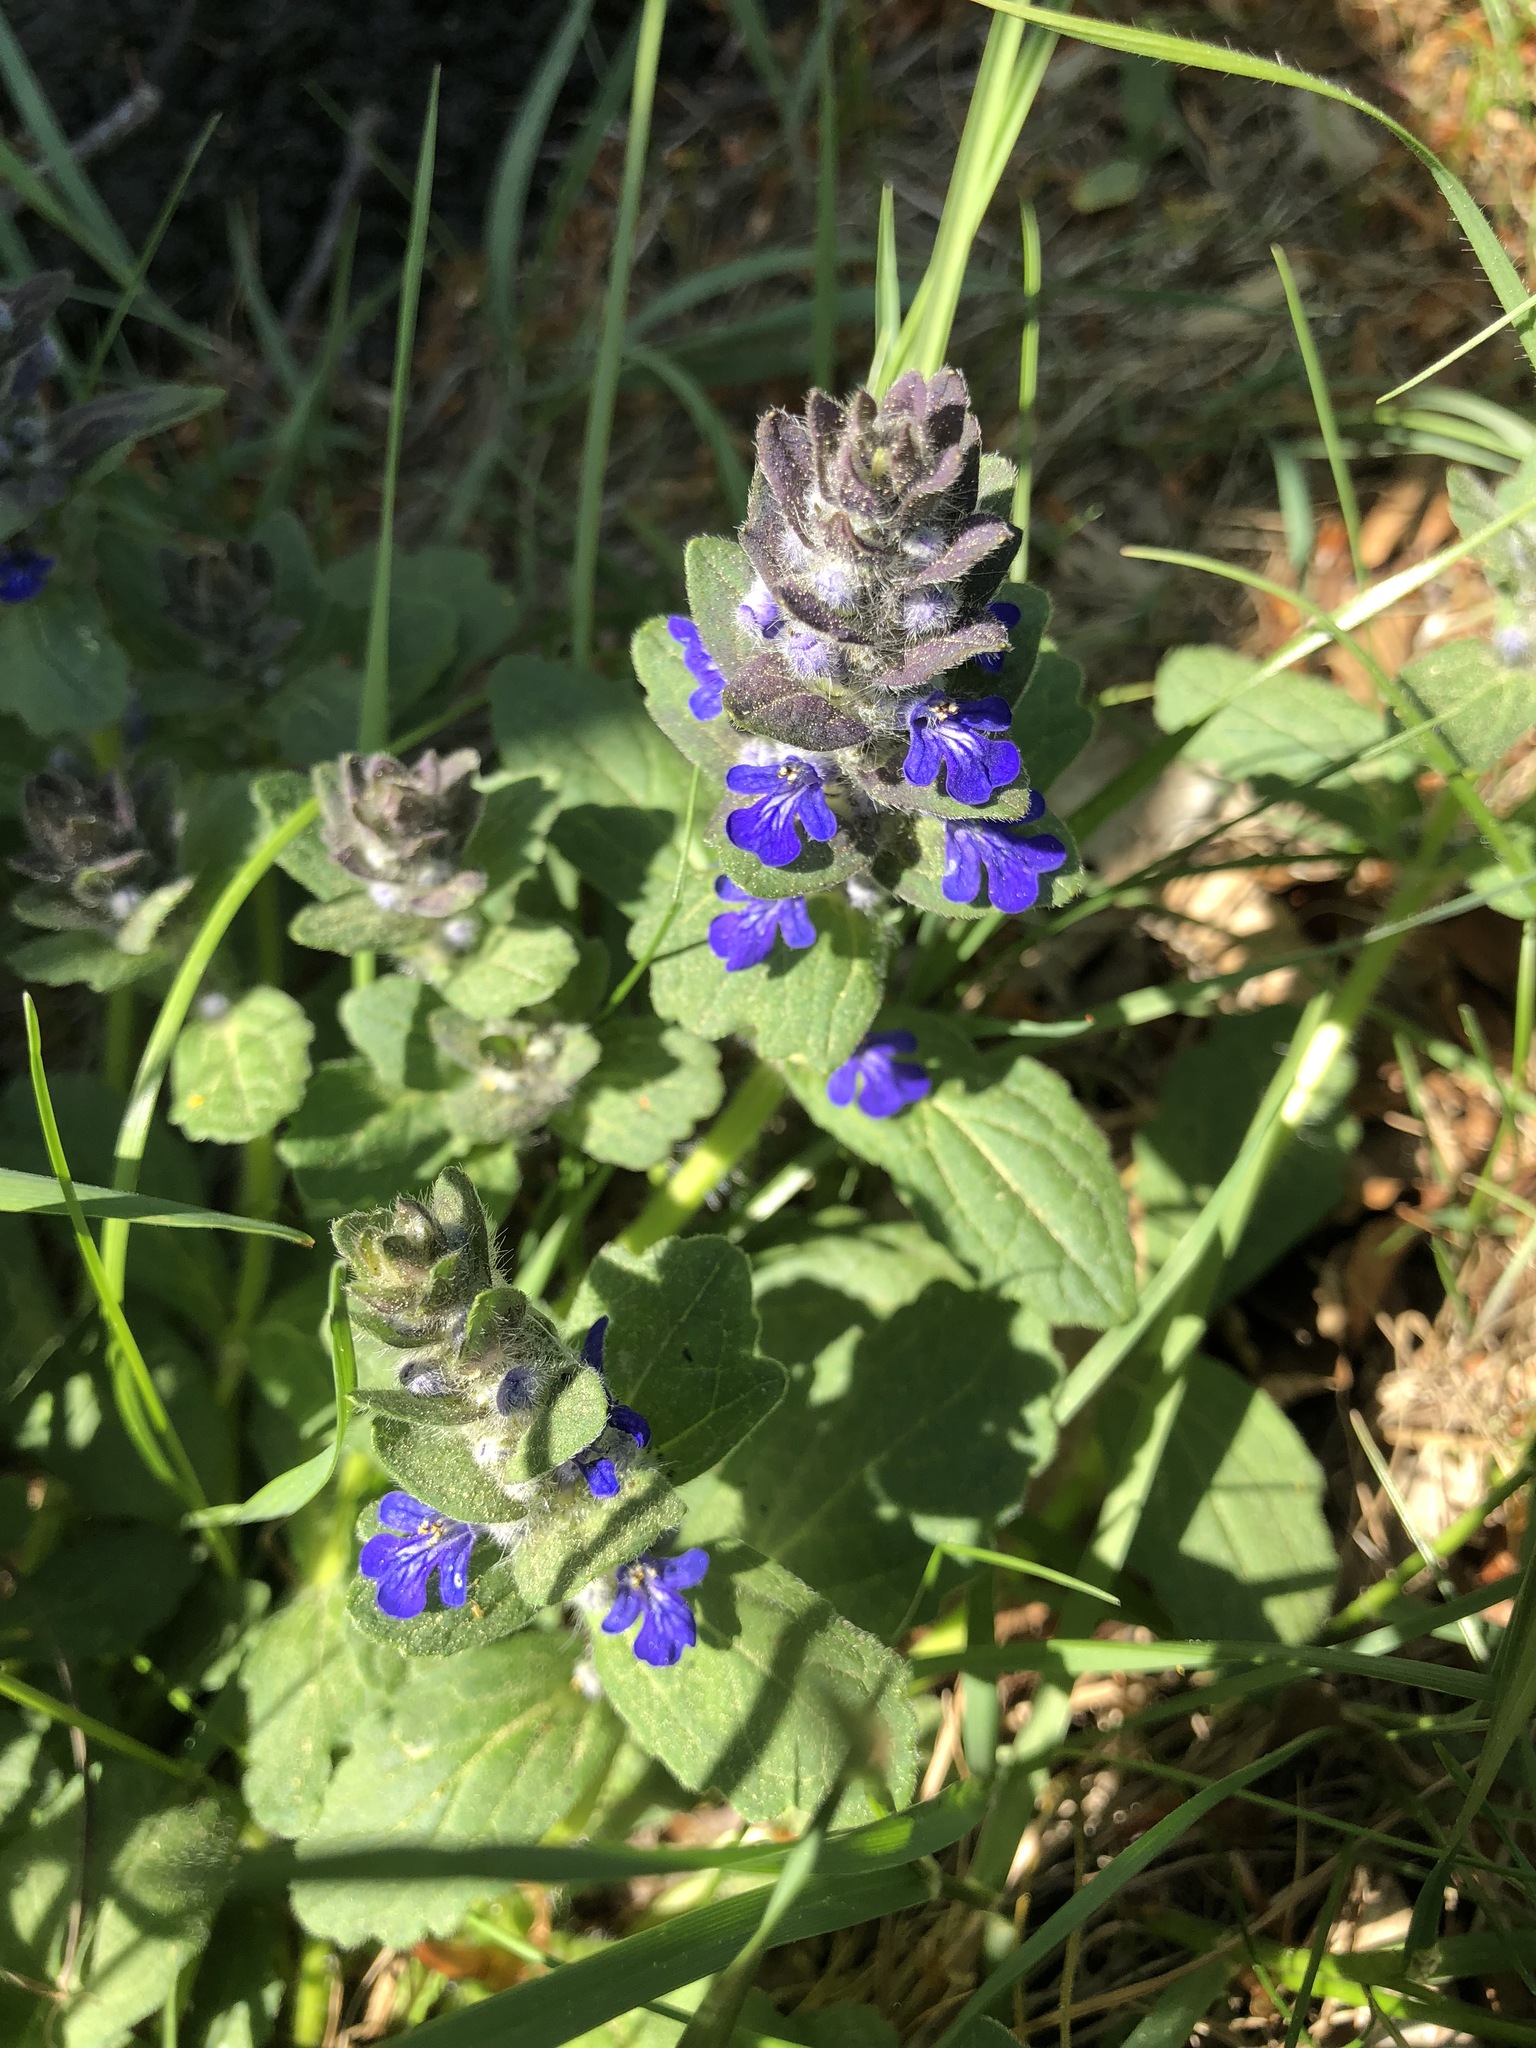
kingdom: Plantae
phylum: Tracheophyta
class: Magnoliopsida
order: Lamiales
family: Lamiaceae
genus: Ajuga
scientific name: Ajuga genevensis
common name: Blue bugle
